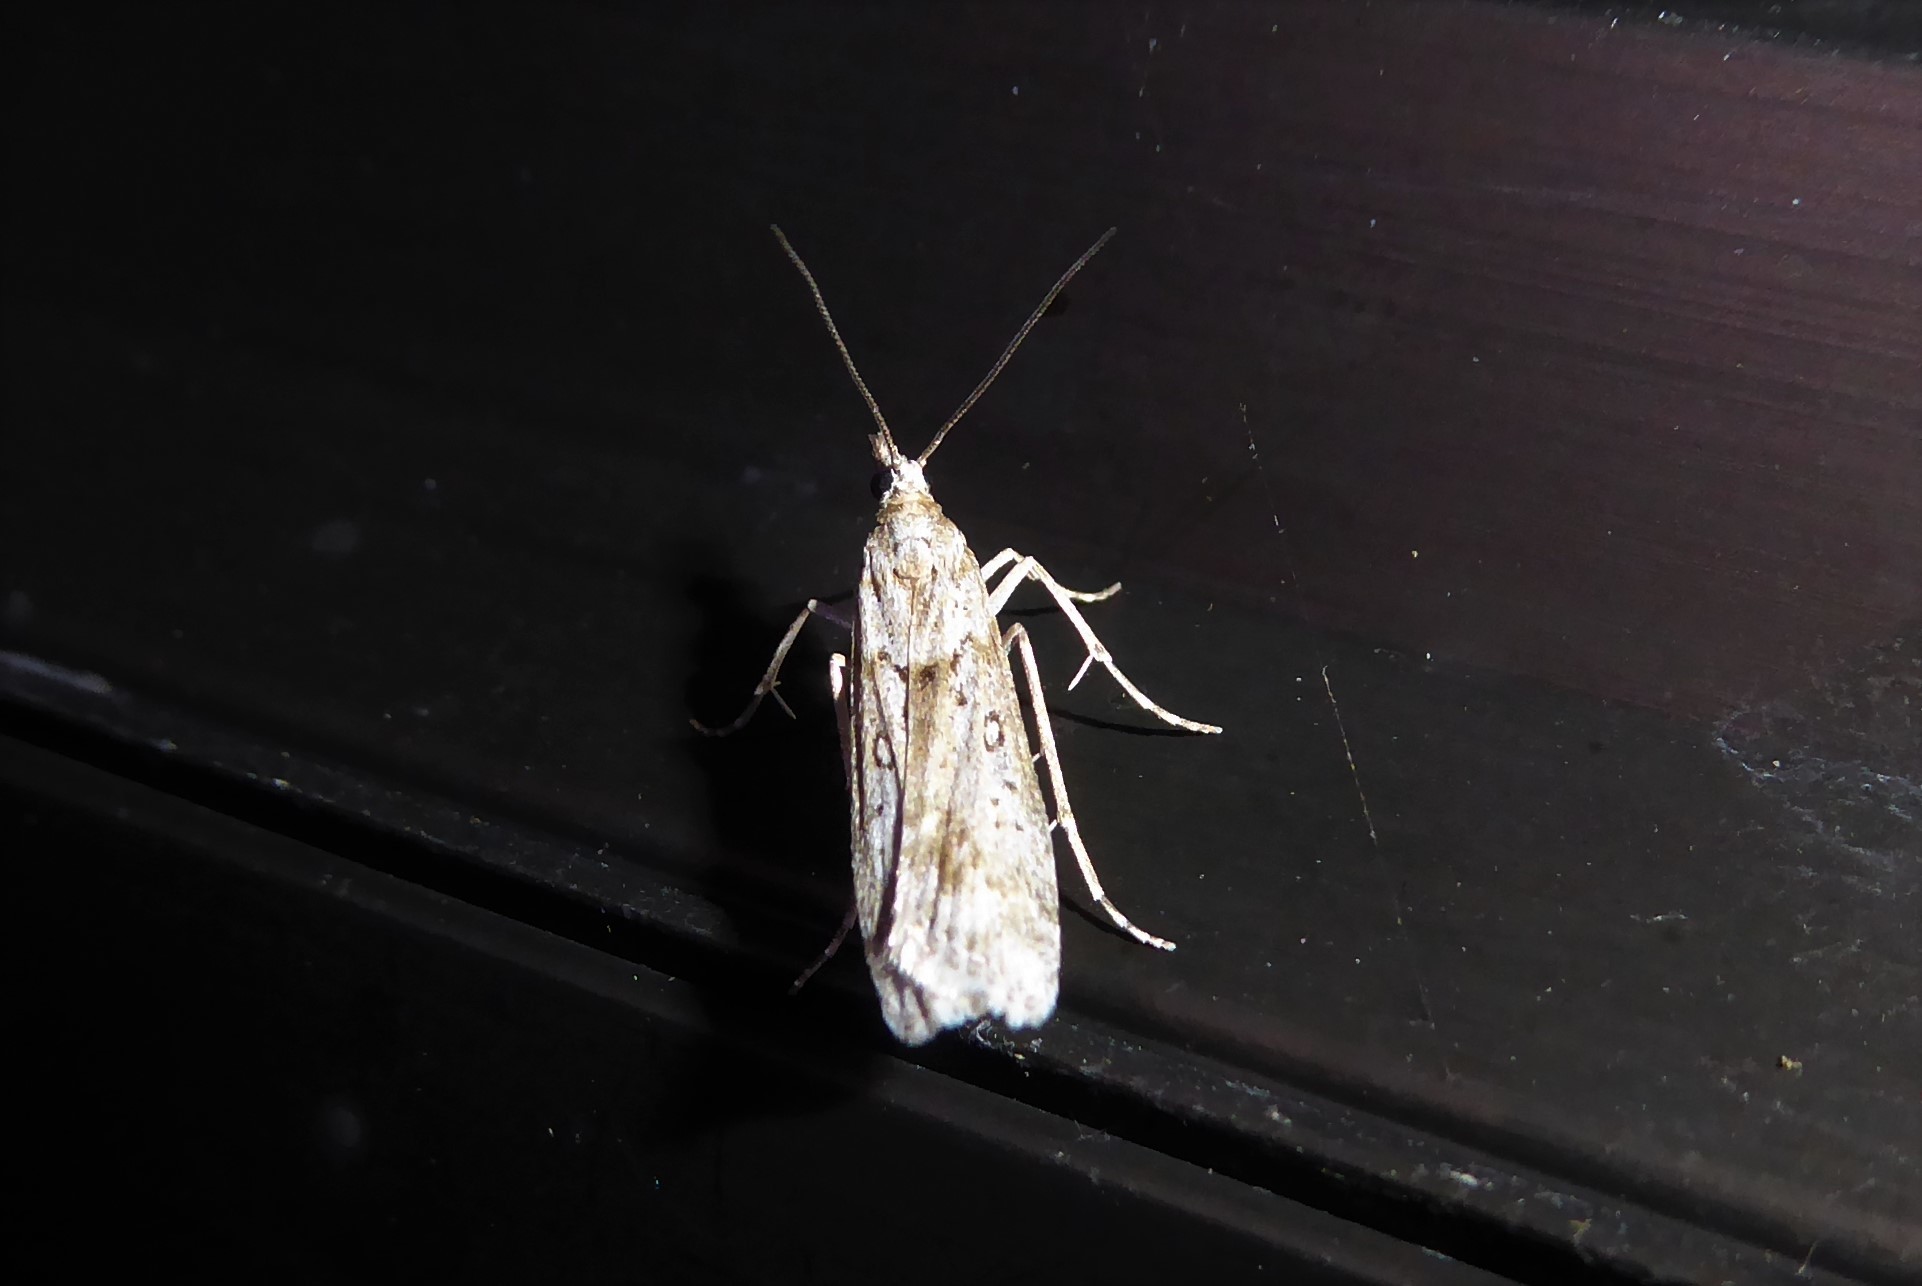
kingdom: Animalia
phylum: Arthropoda
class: Insecta
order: Lepidoptera
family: Crambidae
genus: Eudonia
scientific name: Eudonia leptalea
